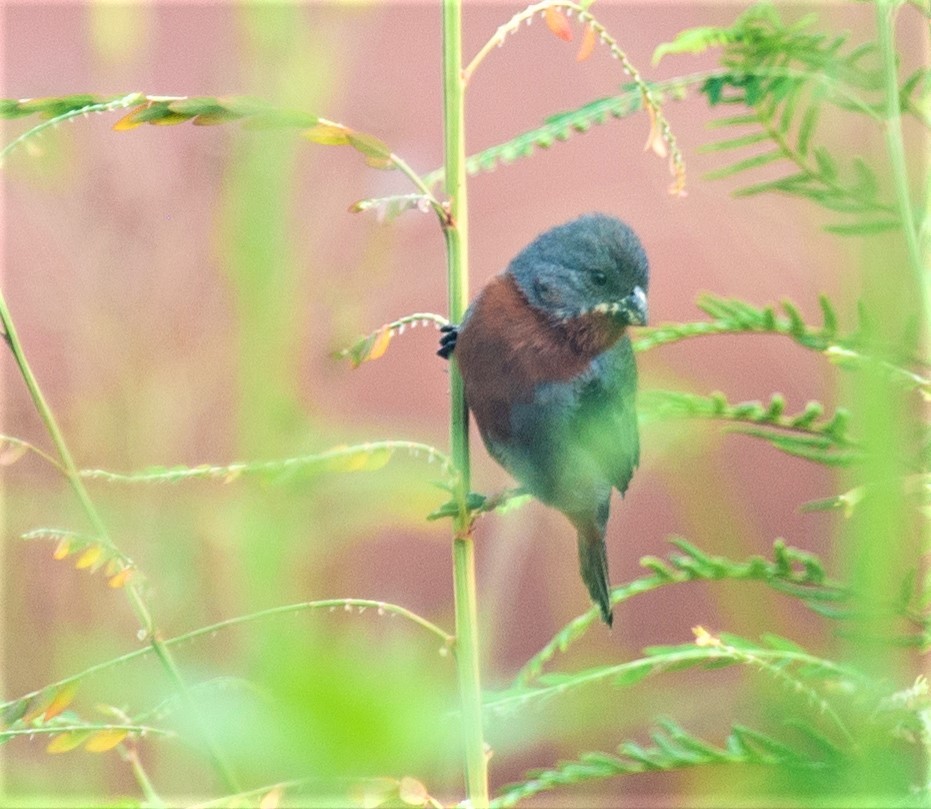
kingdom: Animalia
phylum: Chordata
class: Aves
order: Passeriformes
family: Thraupidae
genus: Sporophila
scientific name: Sporophila castaneiventris
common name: Chestnut-bellied seedeater
